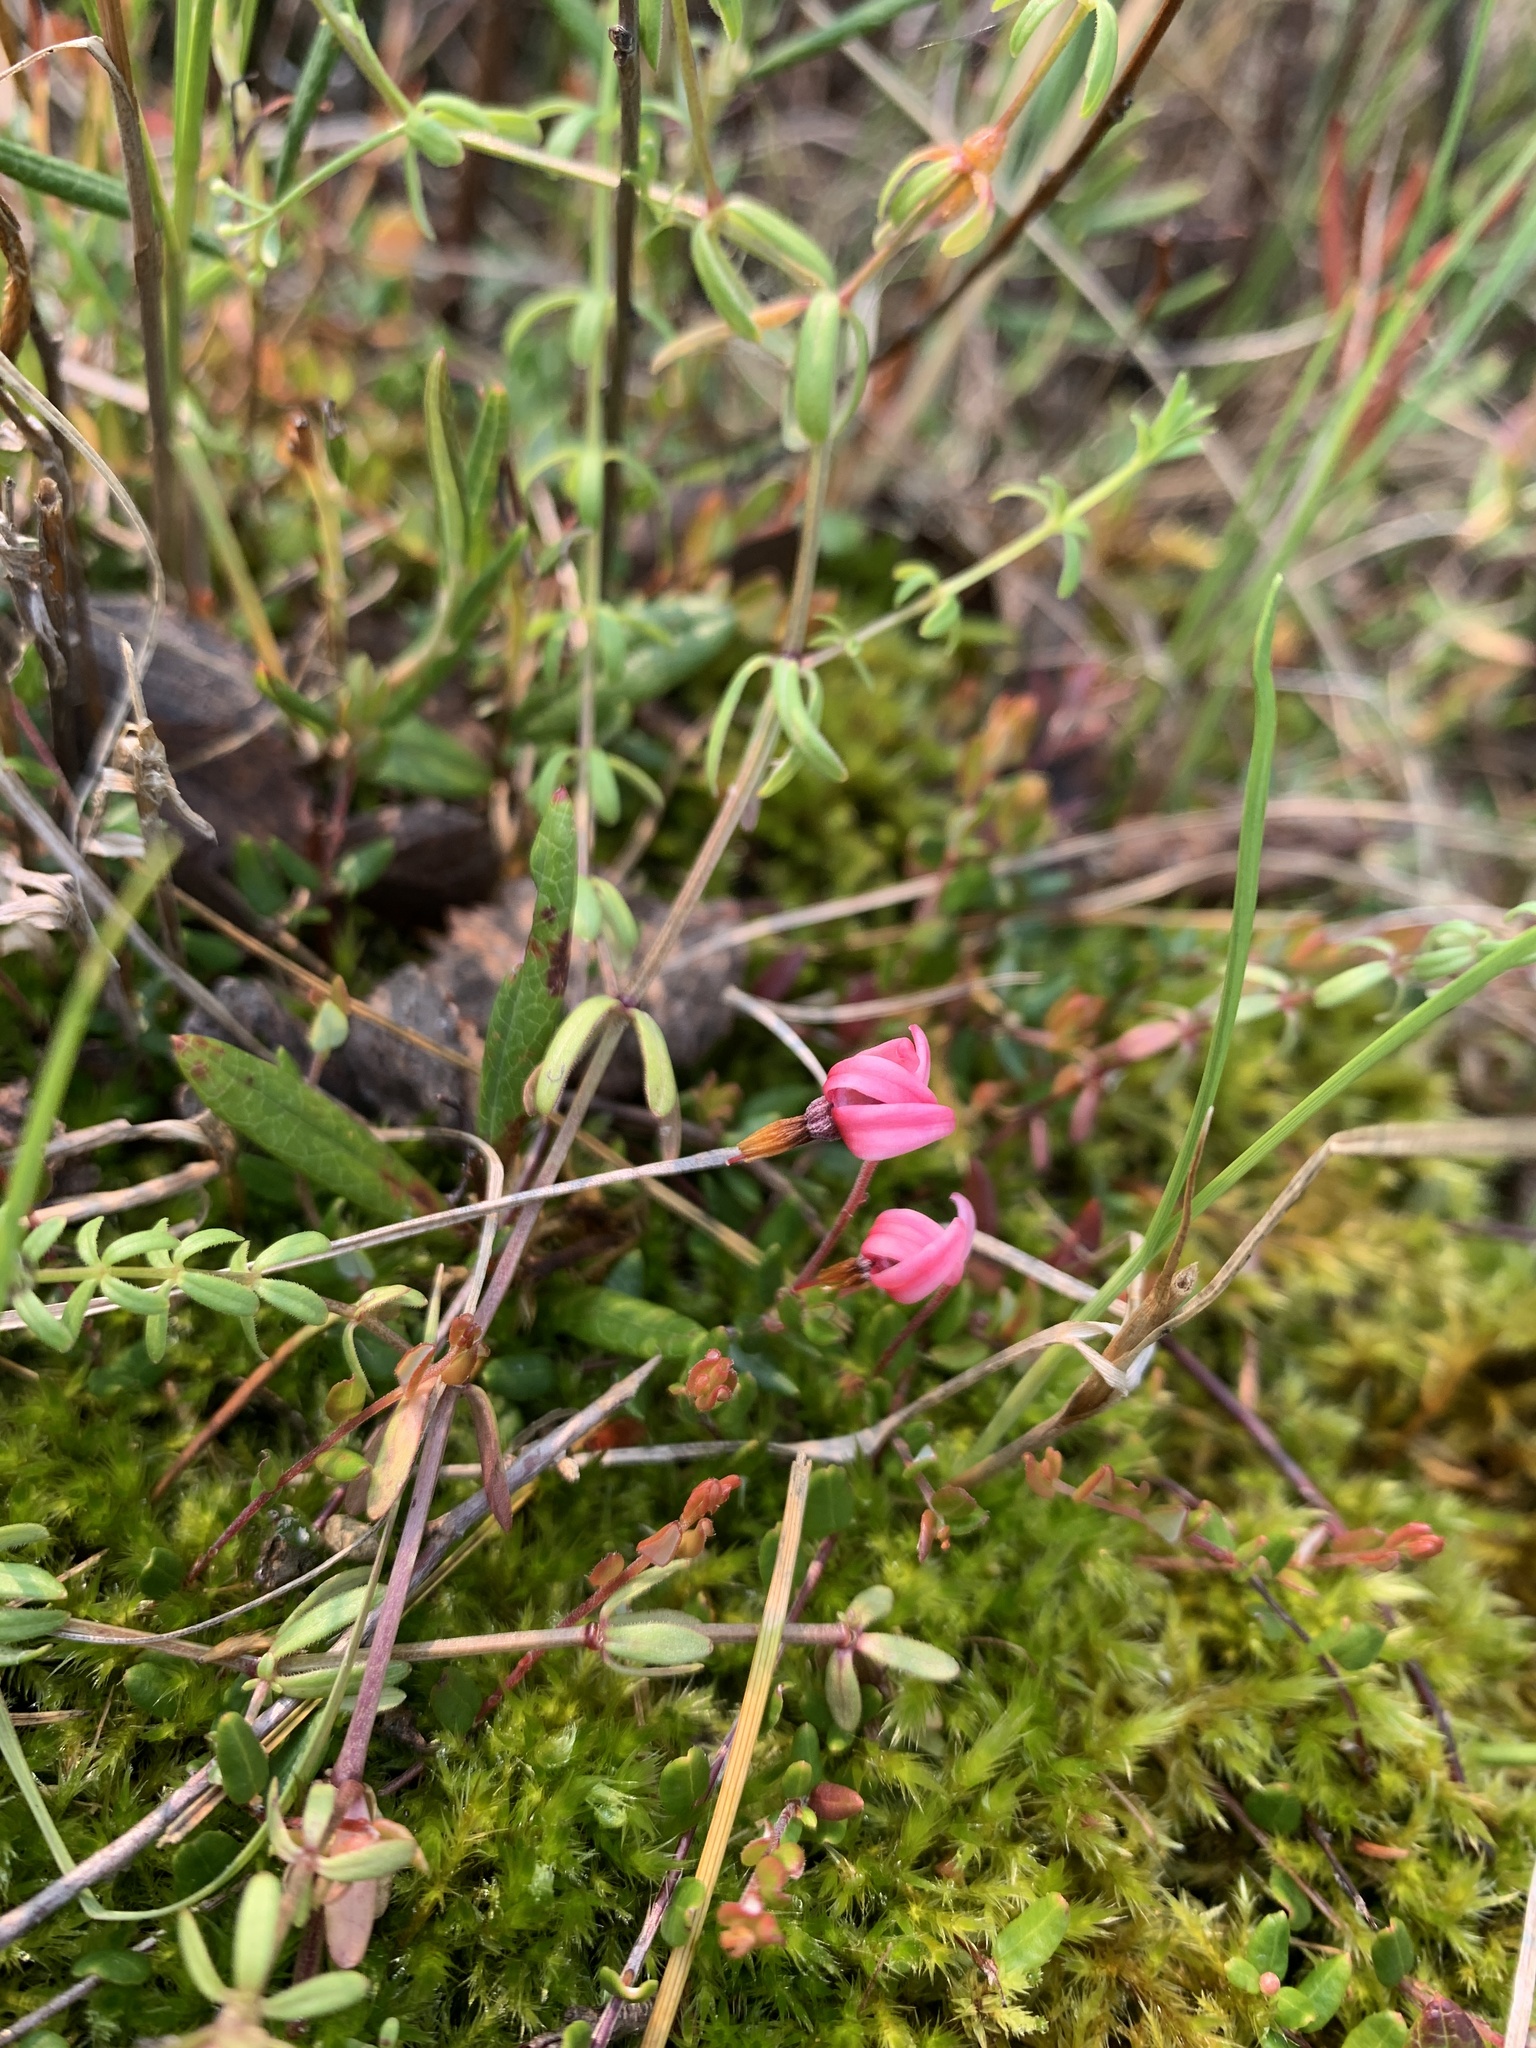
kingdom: Plantae
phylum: Tracheophyta
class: Magnoliopsida
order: Ericales
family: Ericaceae
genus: Vaccinium
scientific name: Vaccinium oxycoccos
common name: Cranberry
